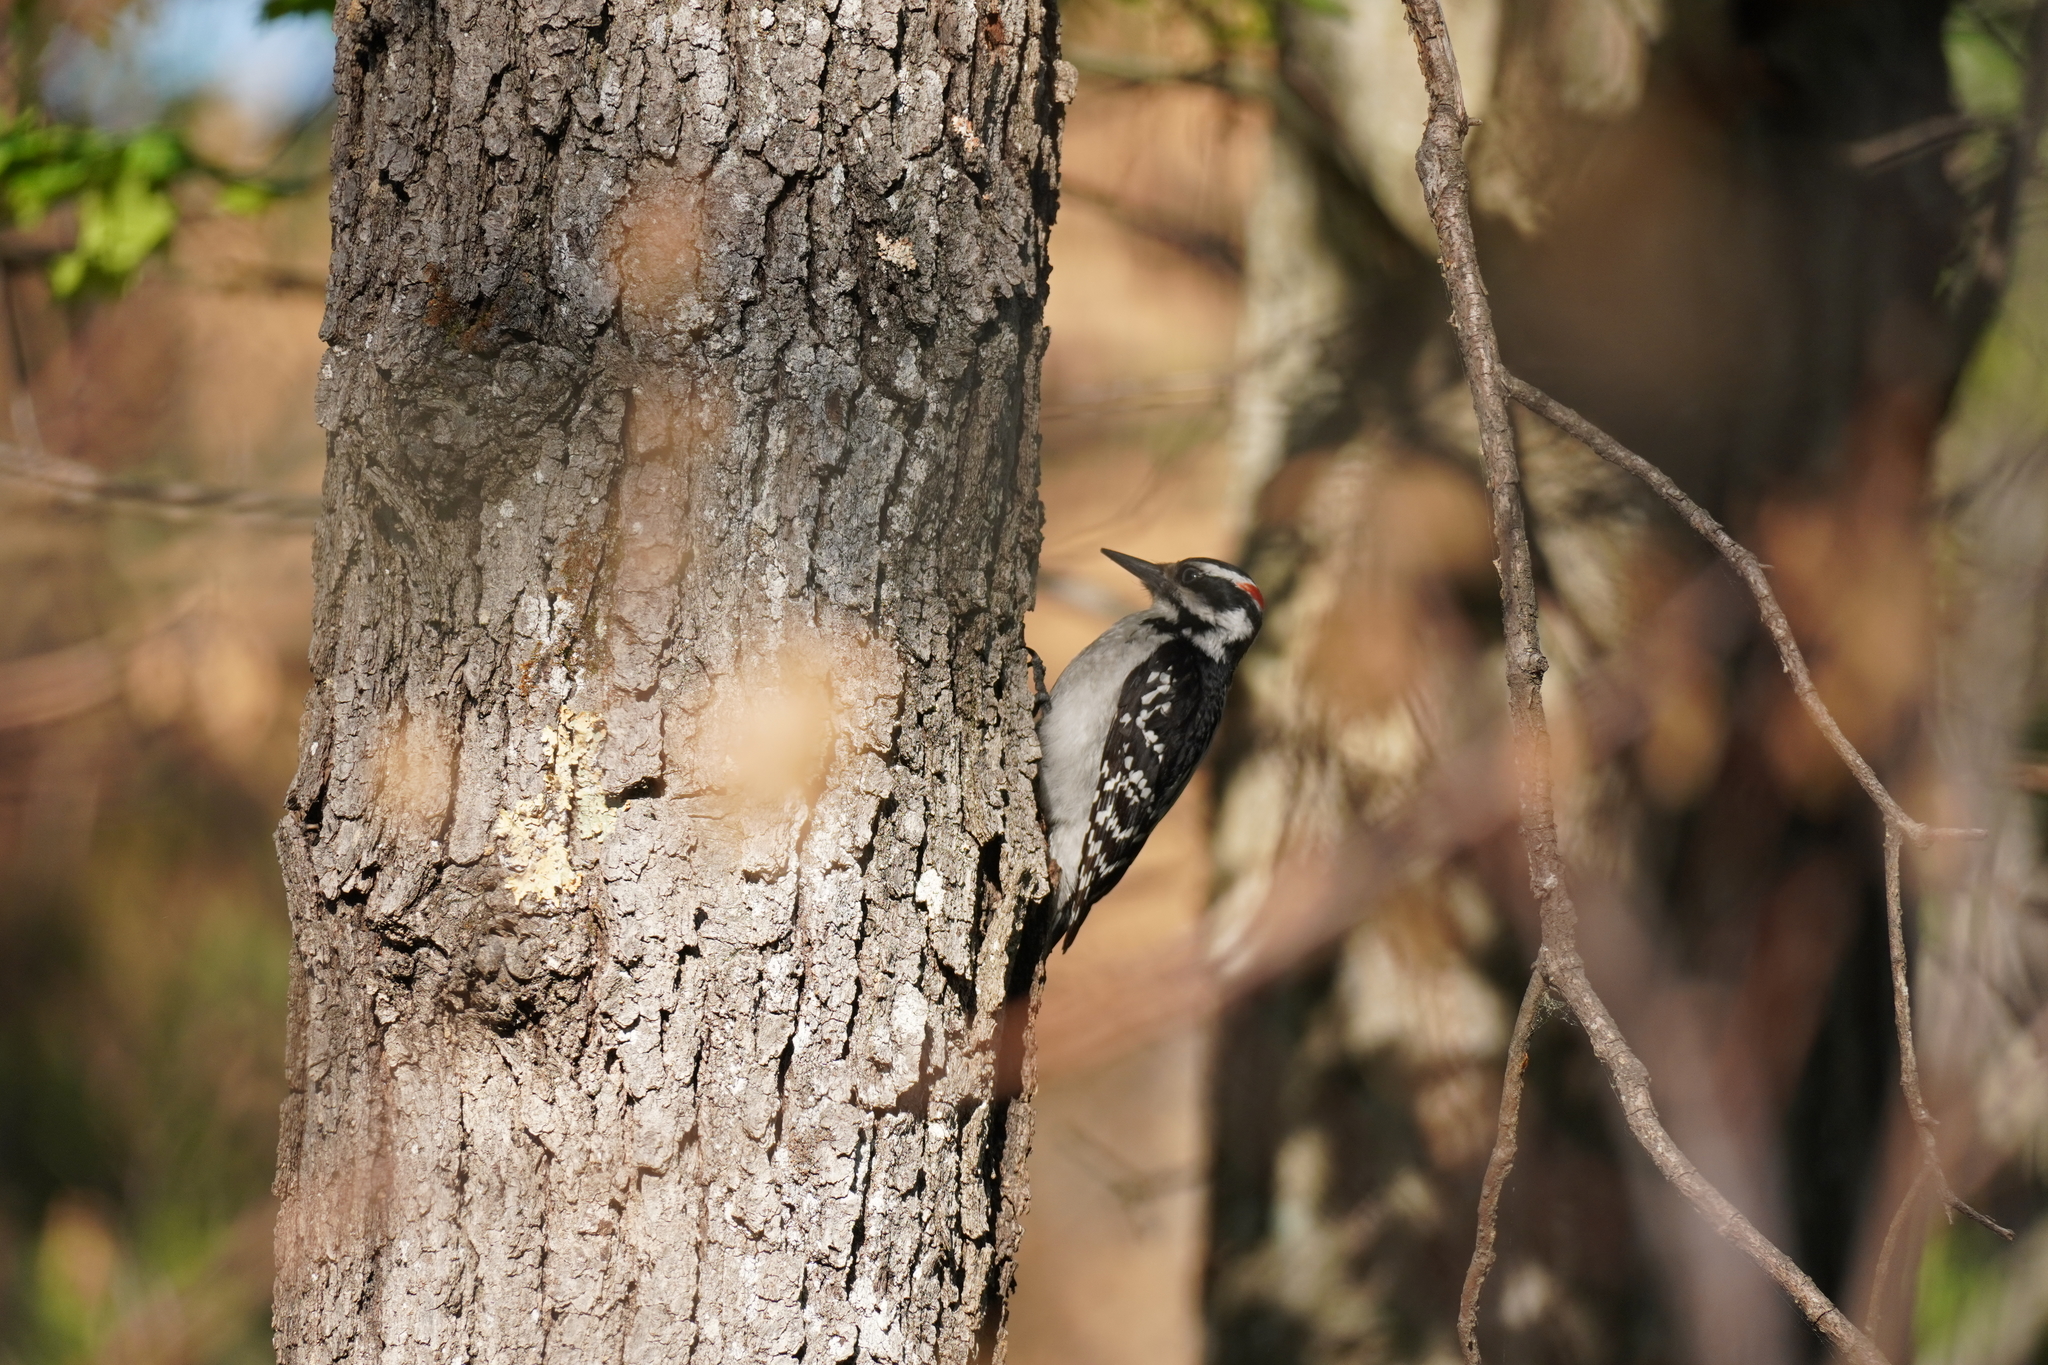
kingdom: Animalia
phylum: Chordata
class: Aves
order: Piciformes
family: Picidae
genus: Leuconotopicus
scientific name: Leuconotopicus villosus
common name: Hairy woodpecker
